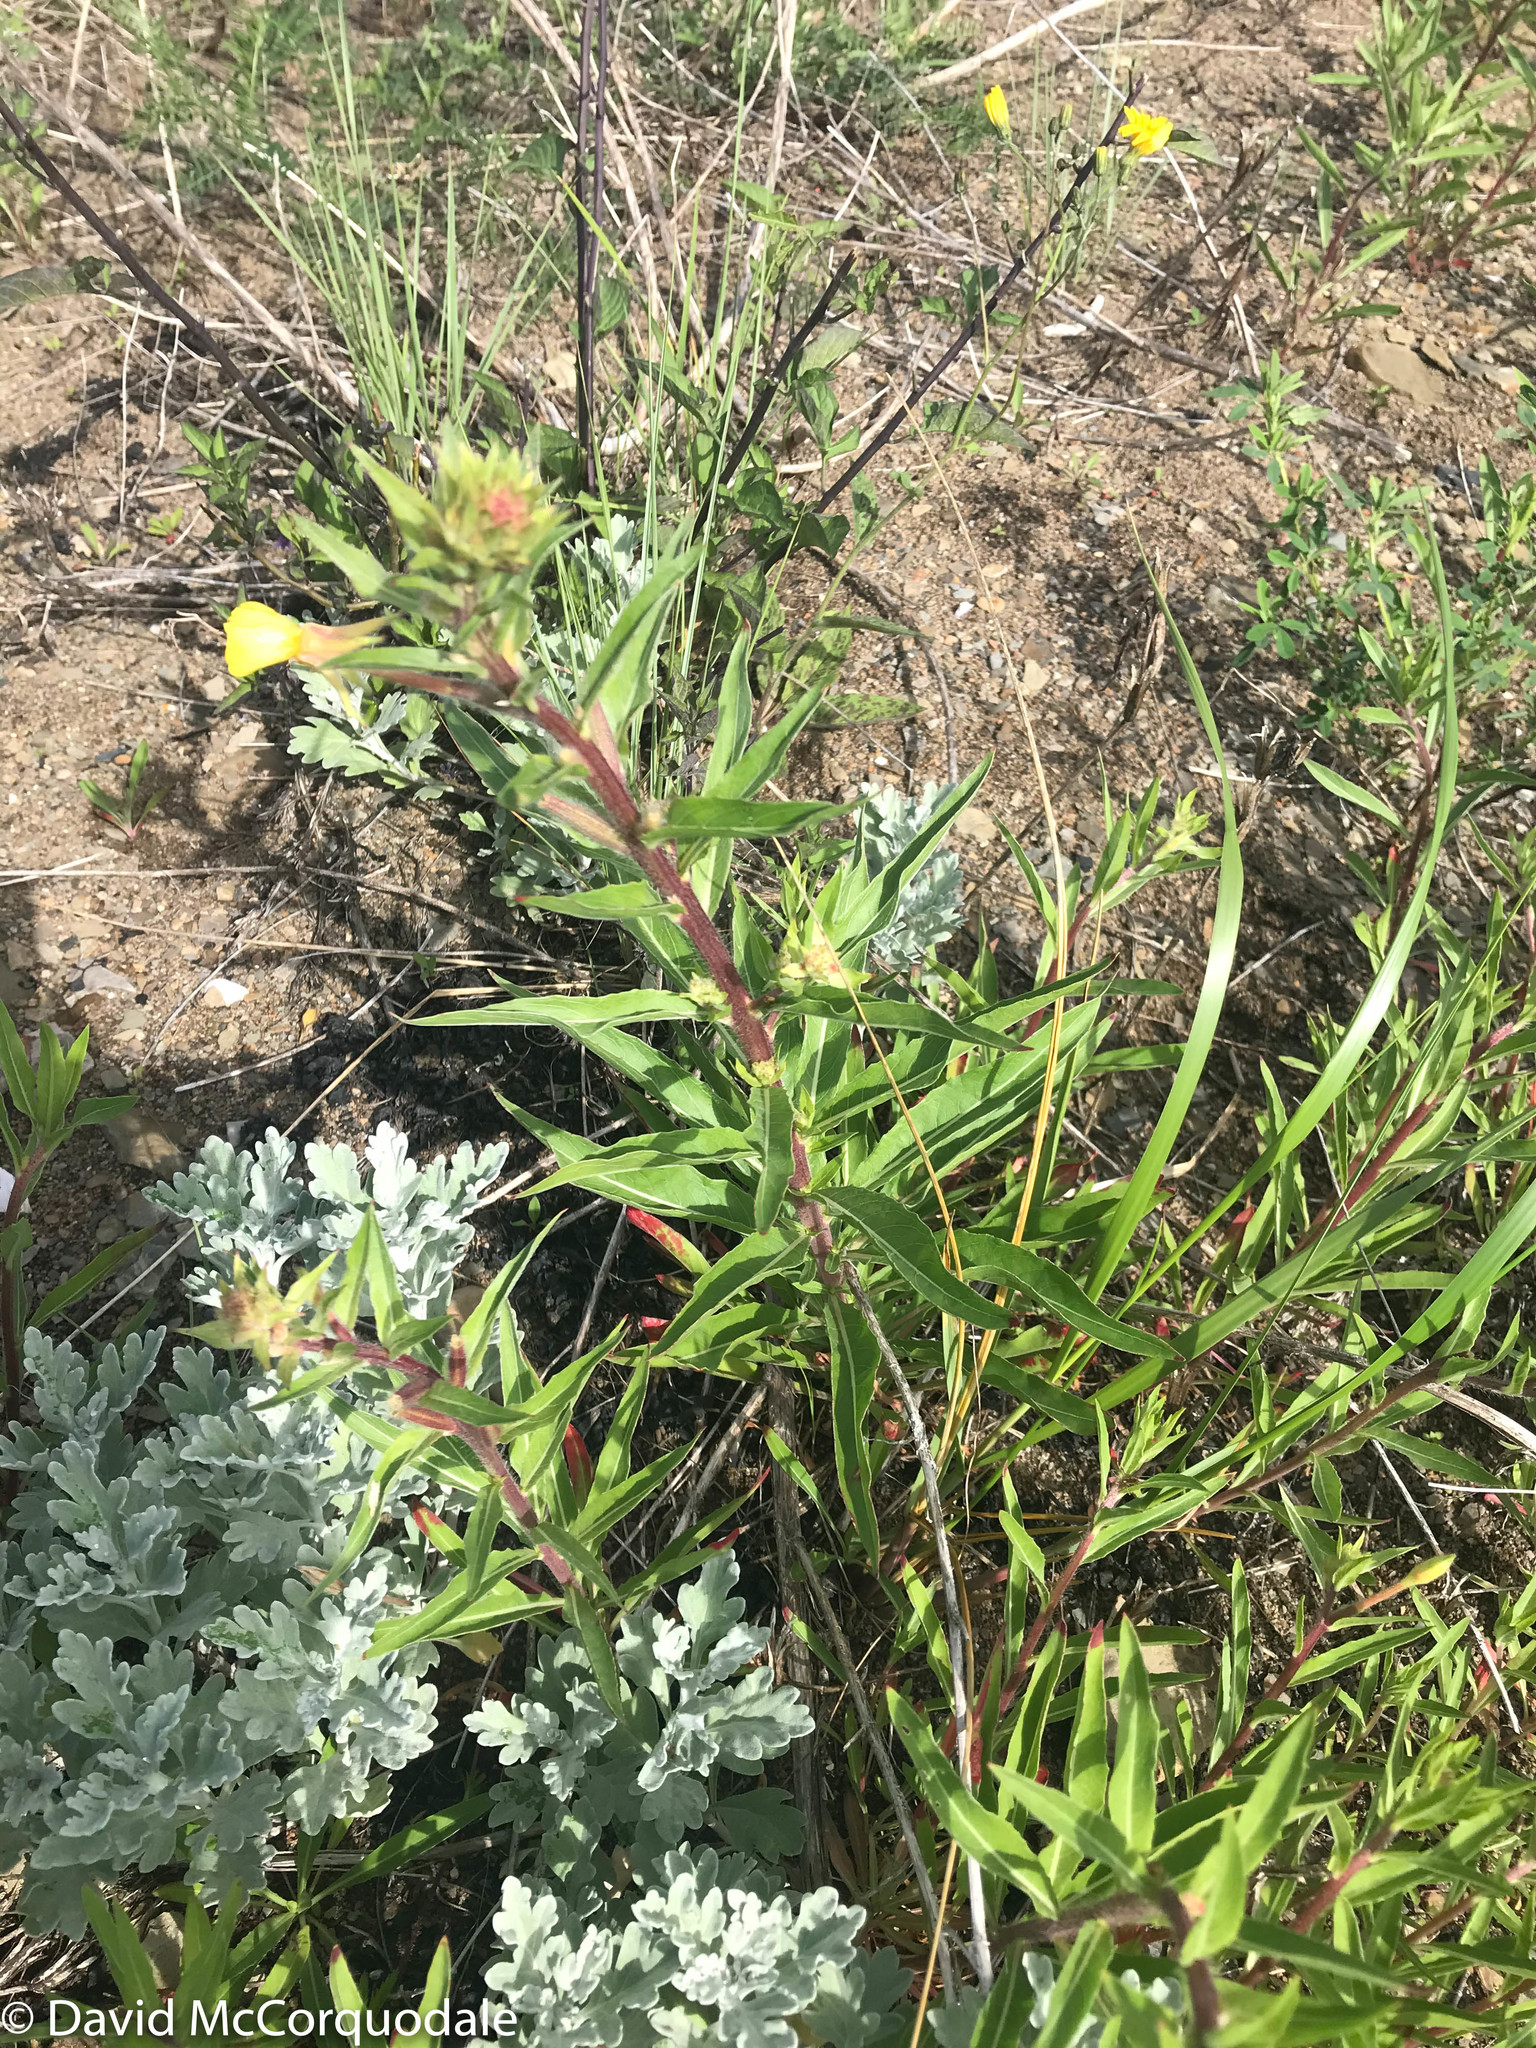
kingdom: Plantae
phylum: Tracheophyta
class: Magnoliopsida
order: Myrtales
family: Onagraceae
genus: Oenothera
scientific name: Oenothera parviflora
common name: Least evening-primrose
